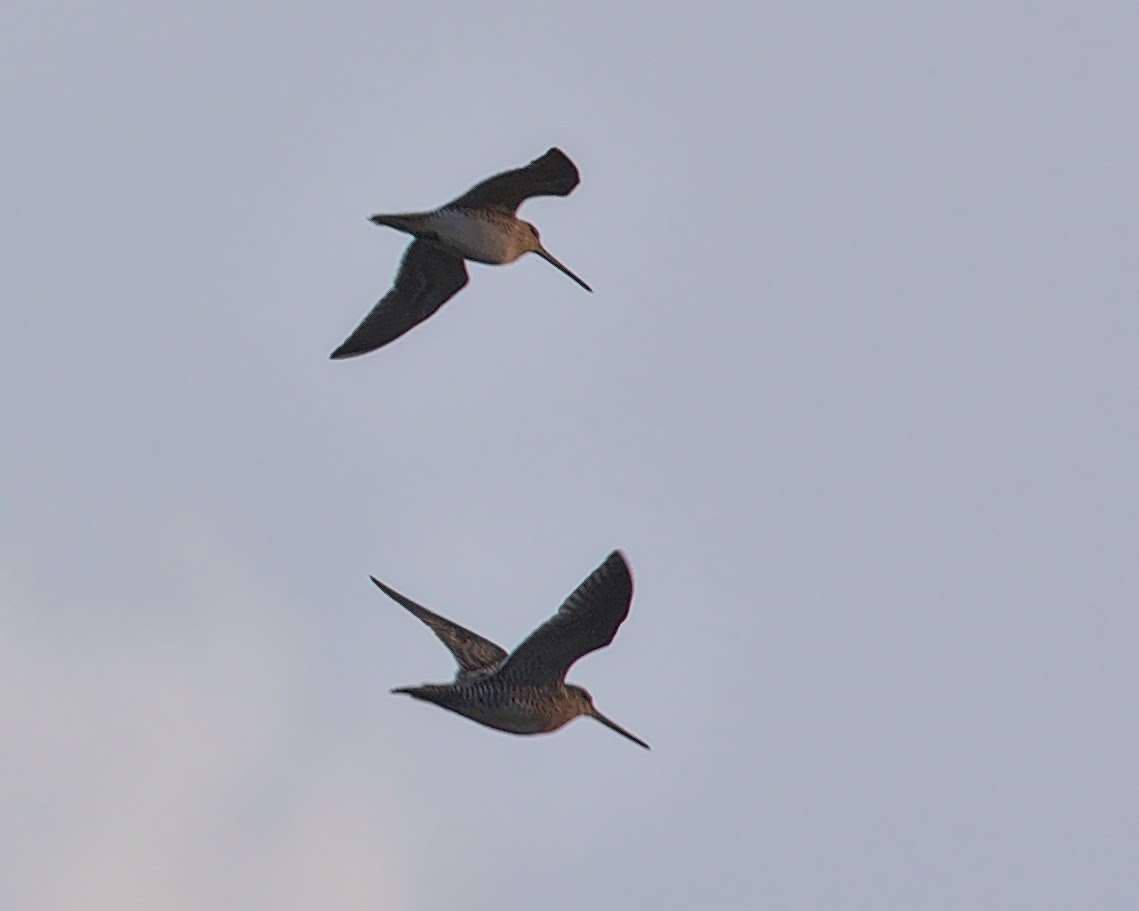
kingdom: Animalia
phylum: Chordata
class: Aves
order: Charadriiformes
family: Scolopacidae
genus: Gallinago
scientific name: Gallinago gallinago
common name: Common snipe
